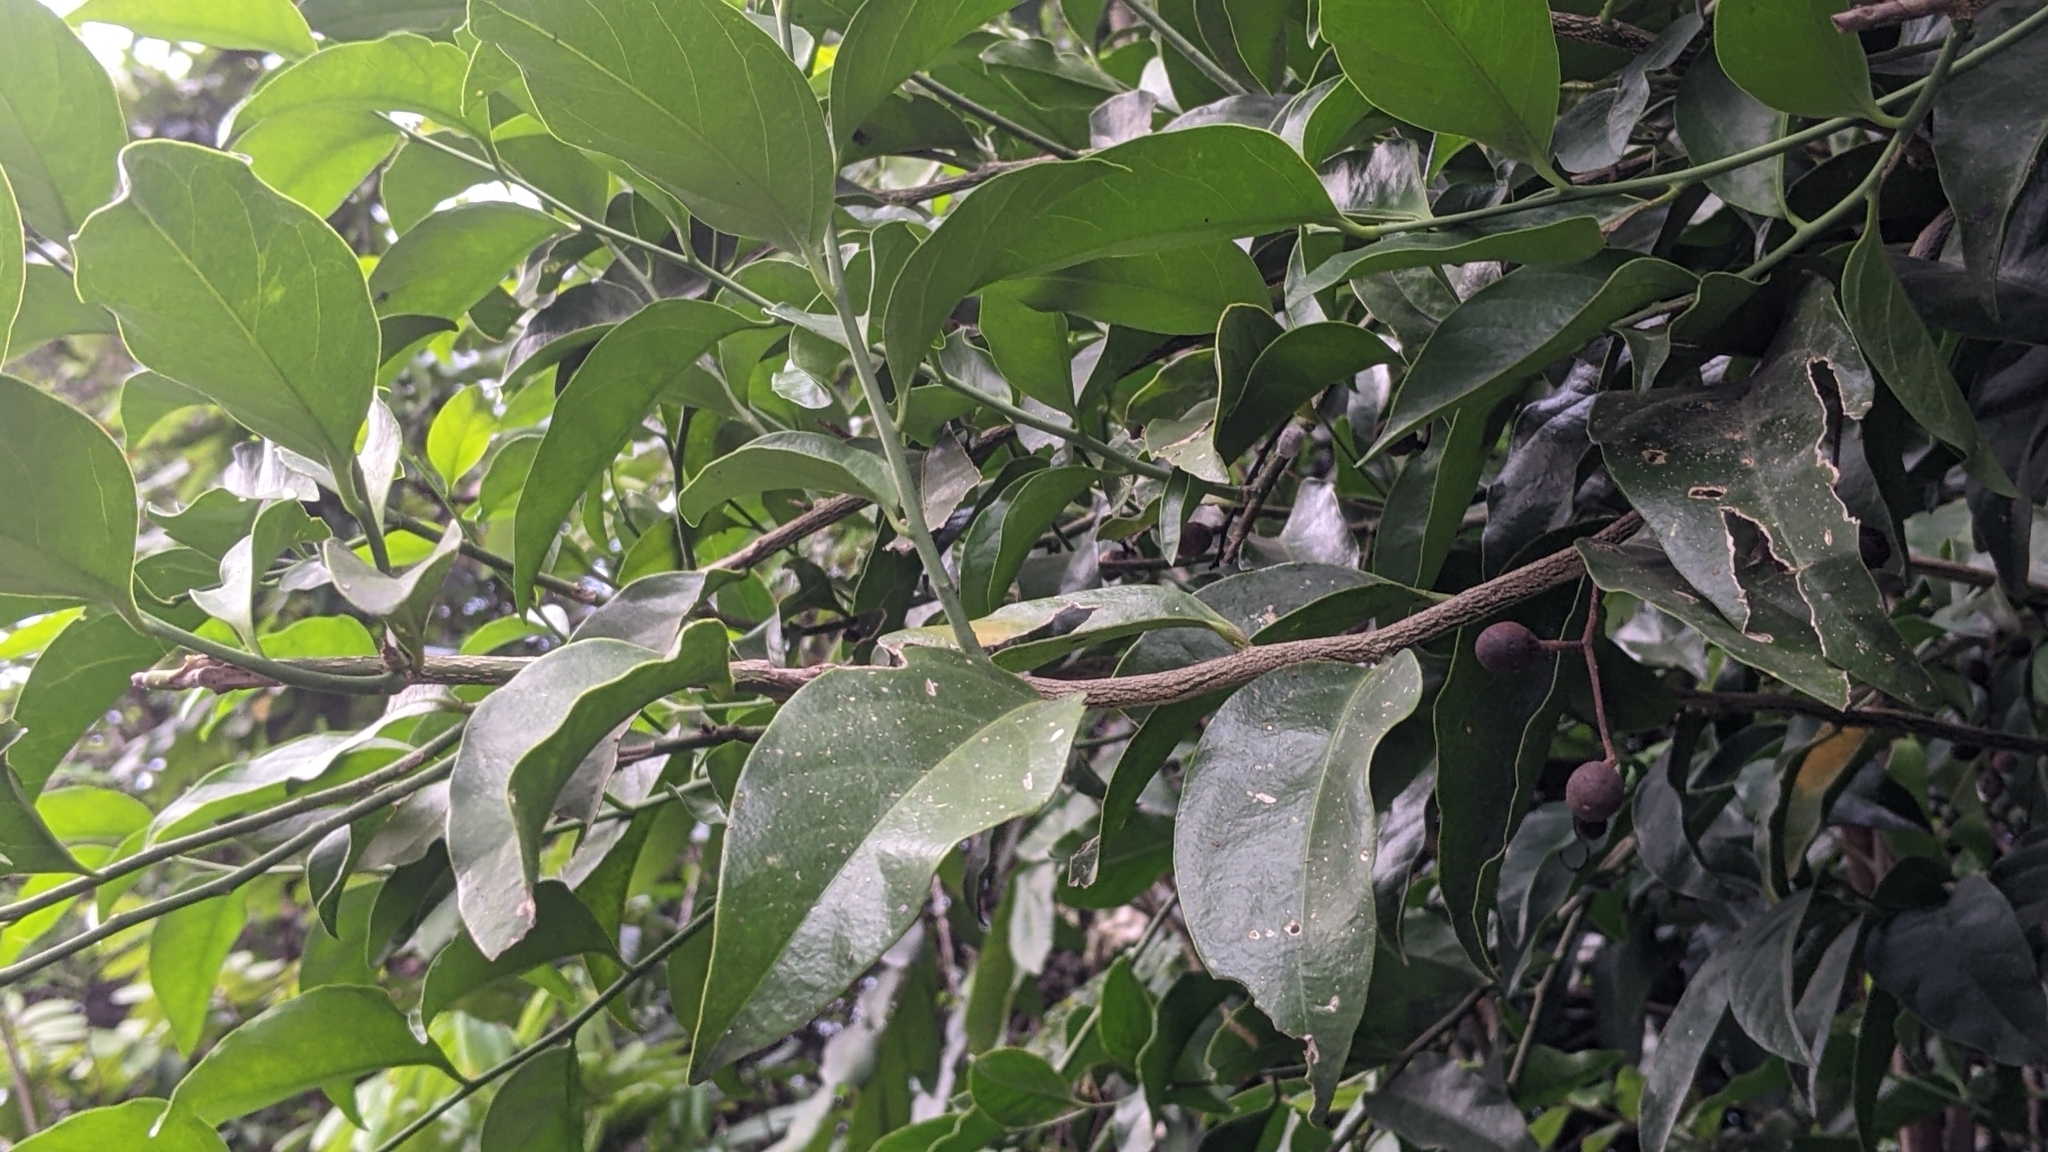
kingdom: Plantae
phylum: Tracheophyta
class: Magnoliopsida
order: Santalales
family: Opiliaceae
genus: Champereia
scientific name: Champereia manillana
